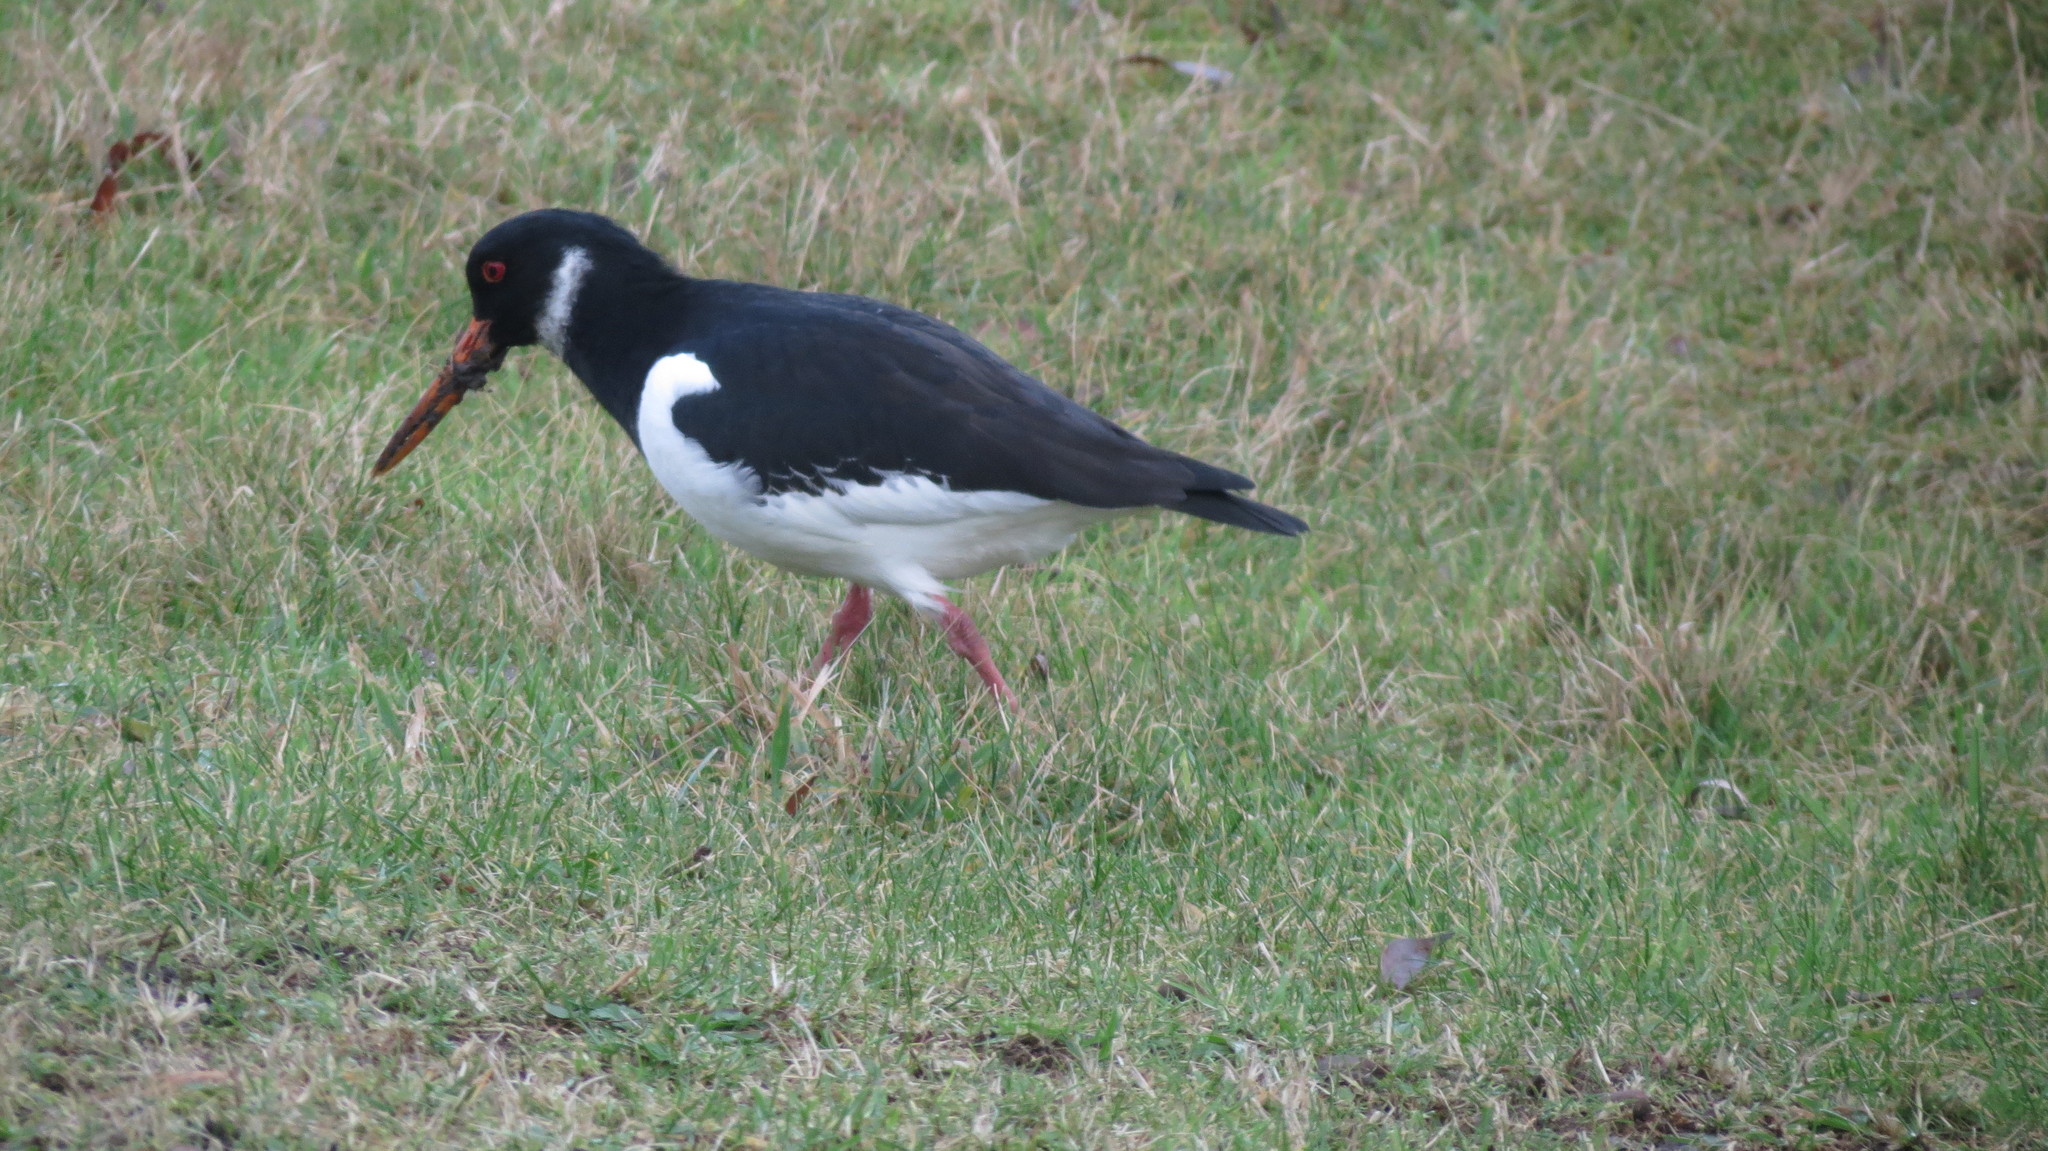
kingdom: Animalia
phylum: Chordata
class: Aves
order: Charadriiformes
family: Haematopodidae
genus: Haematopus
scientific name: Haematopus ostralegus
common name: Eurasian oystercatcher
